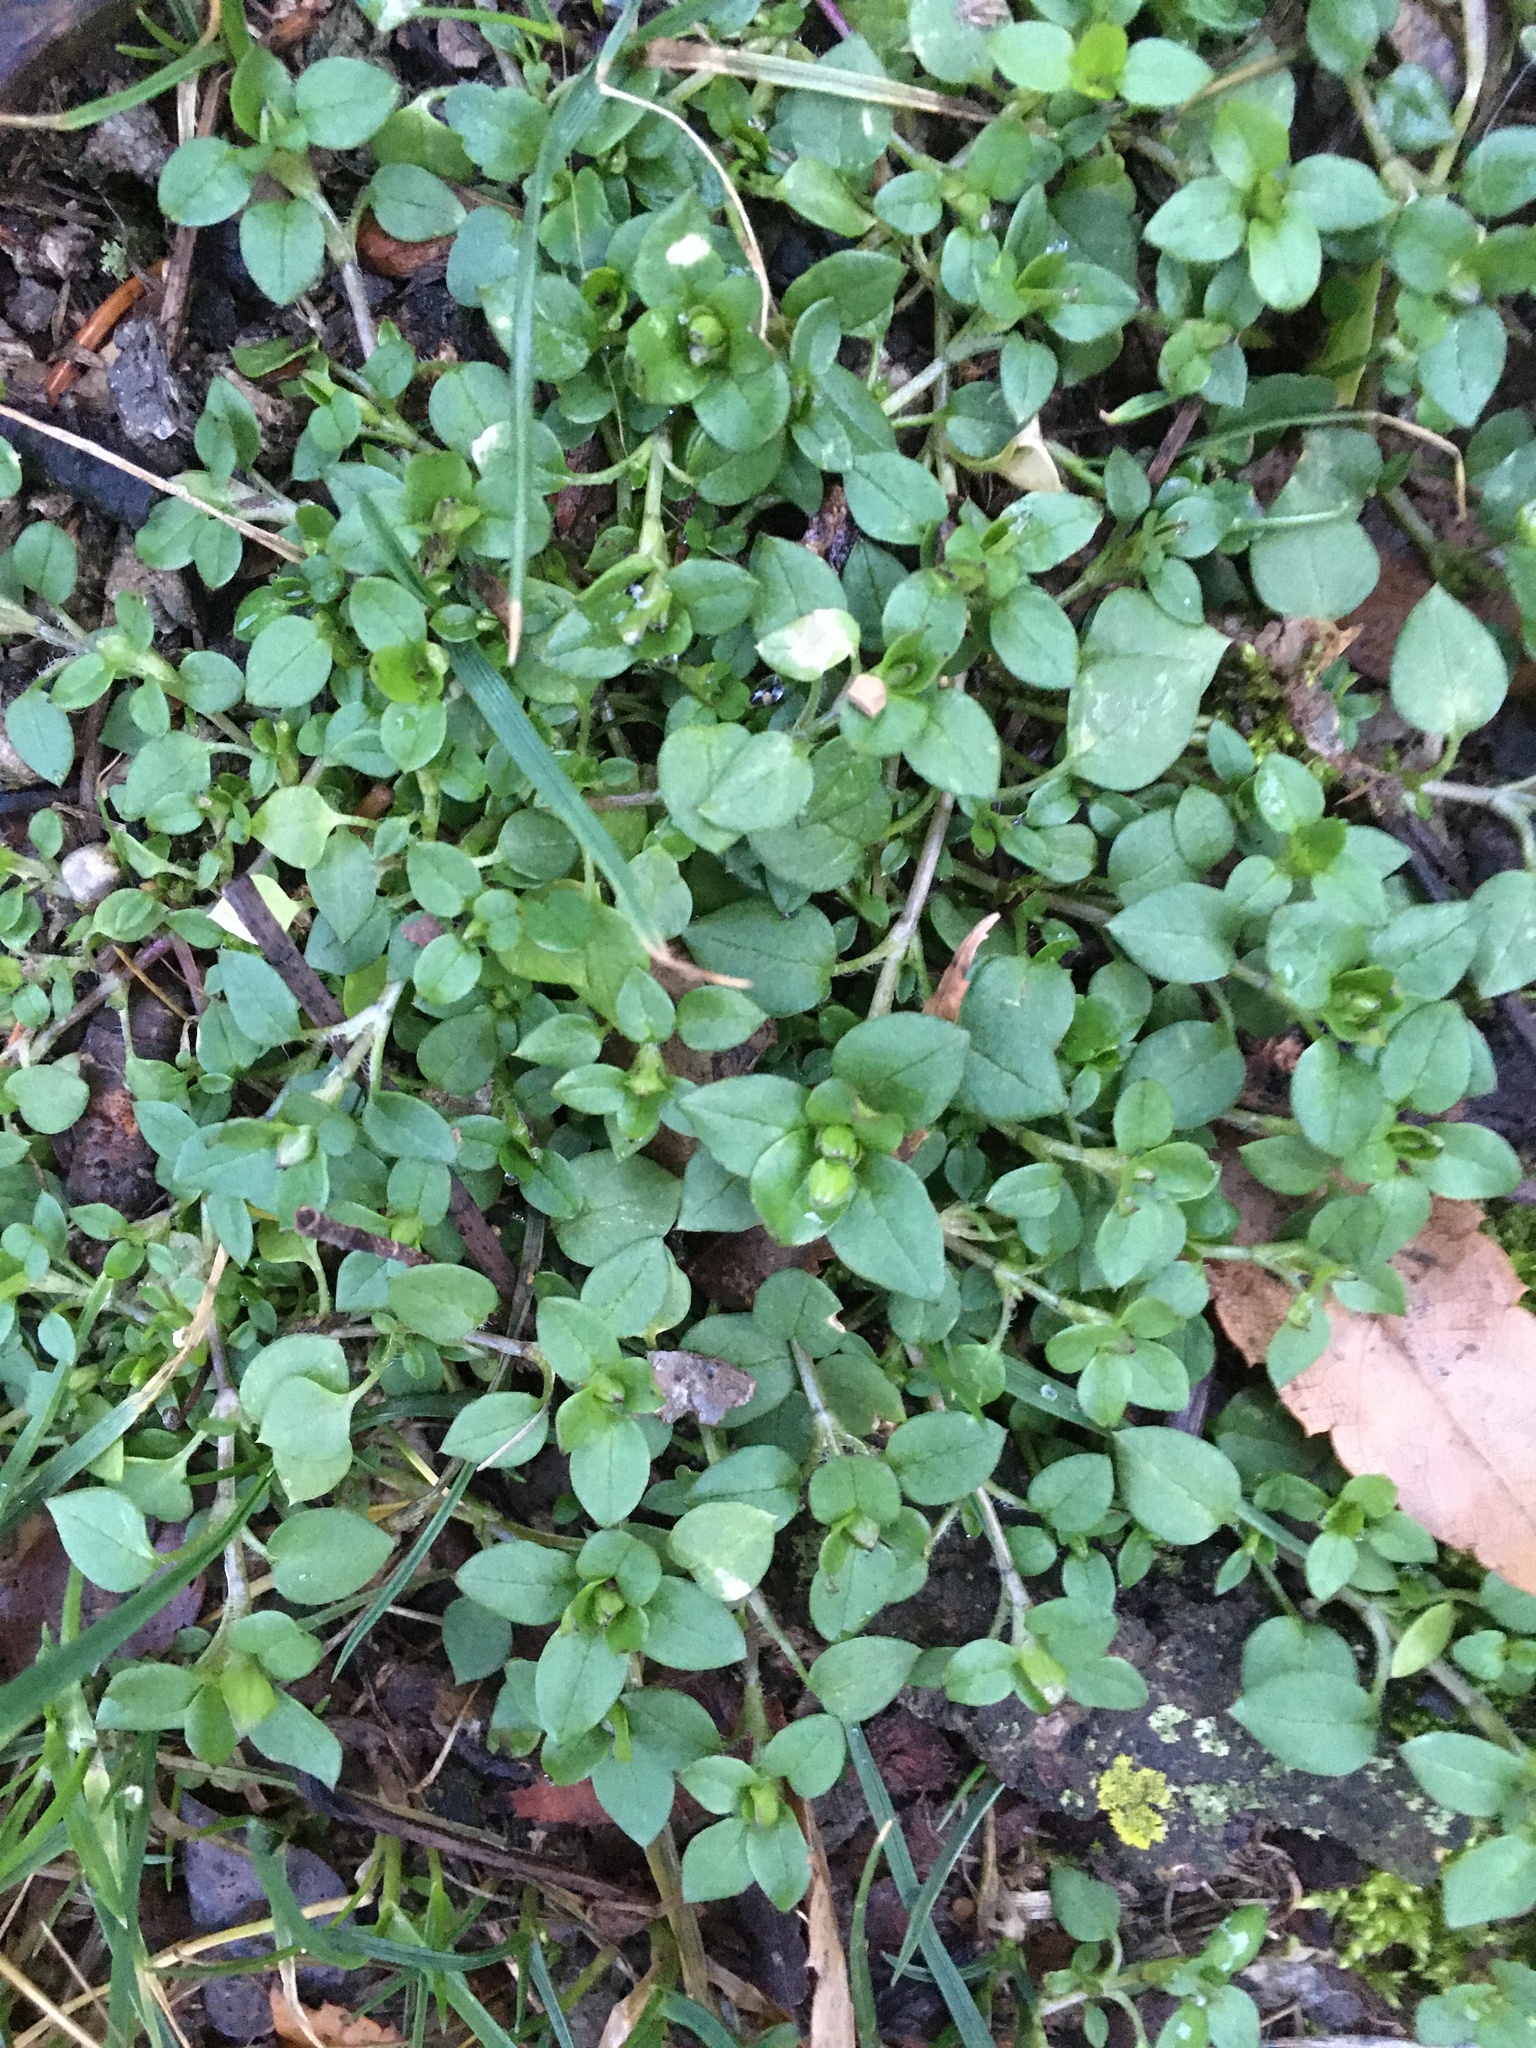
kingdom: Plantae
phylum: Tracheophyta
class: Magnoliopsida
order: Caryophyllales
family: Caryophyllaceae
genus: Stellaria
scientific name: Stellaria media
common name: Common chickweed
